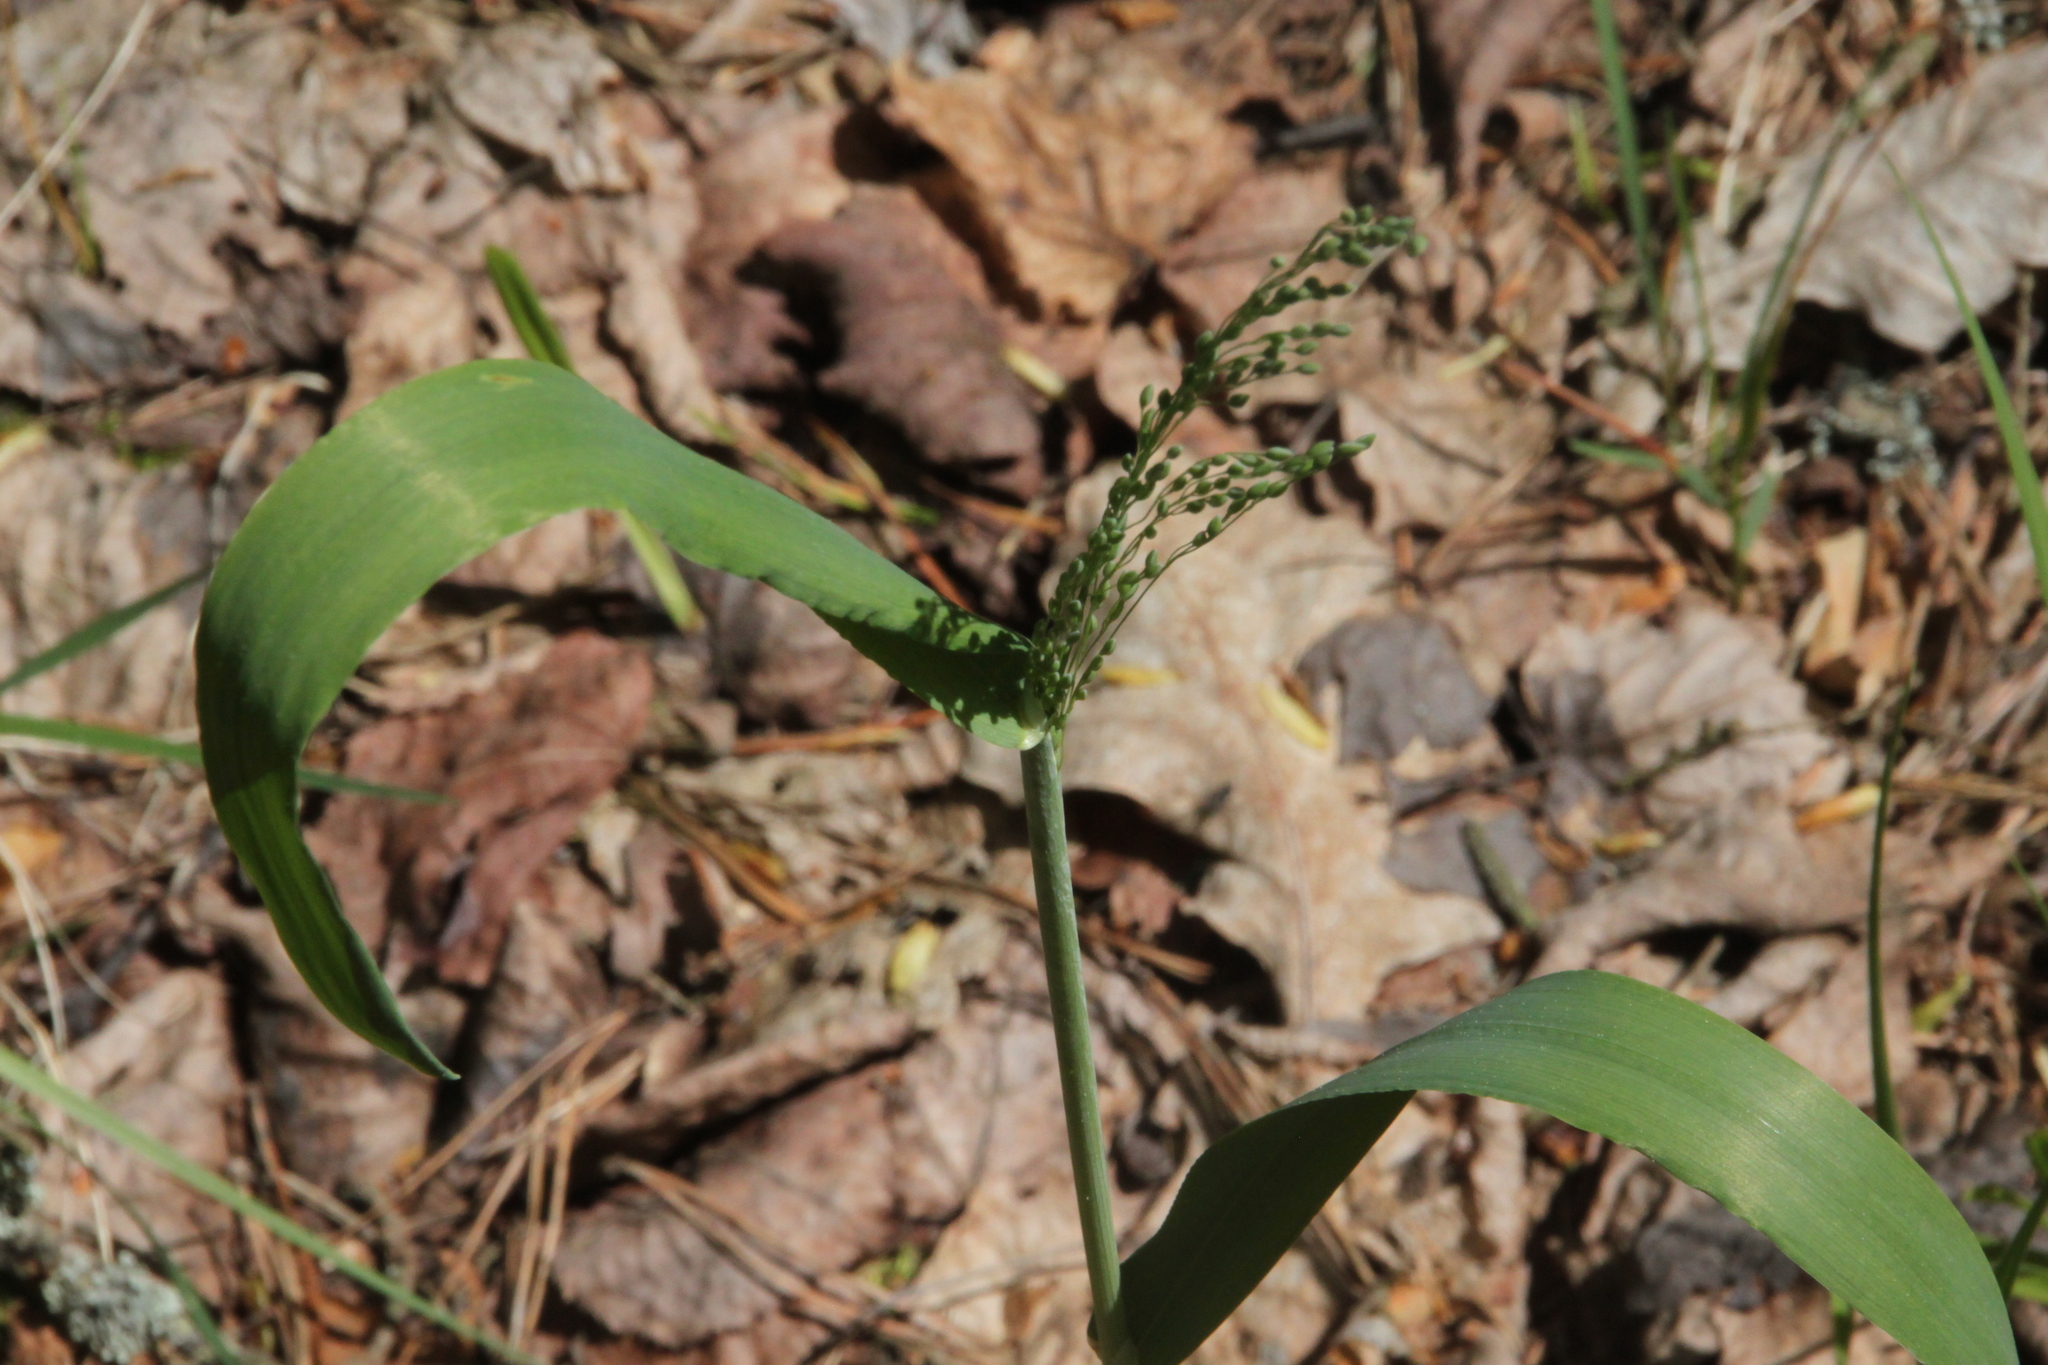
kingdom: Plantae
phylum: Tracheophyta
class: Liliopsida
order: Poales
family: Poaceae
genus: Milium
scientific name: Milium effusum
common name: Wood millet
